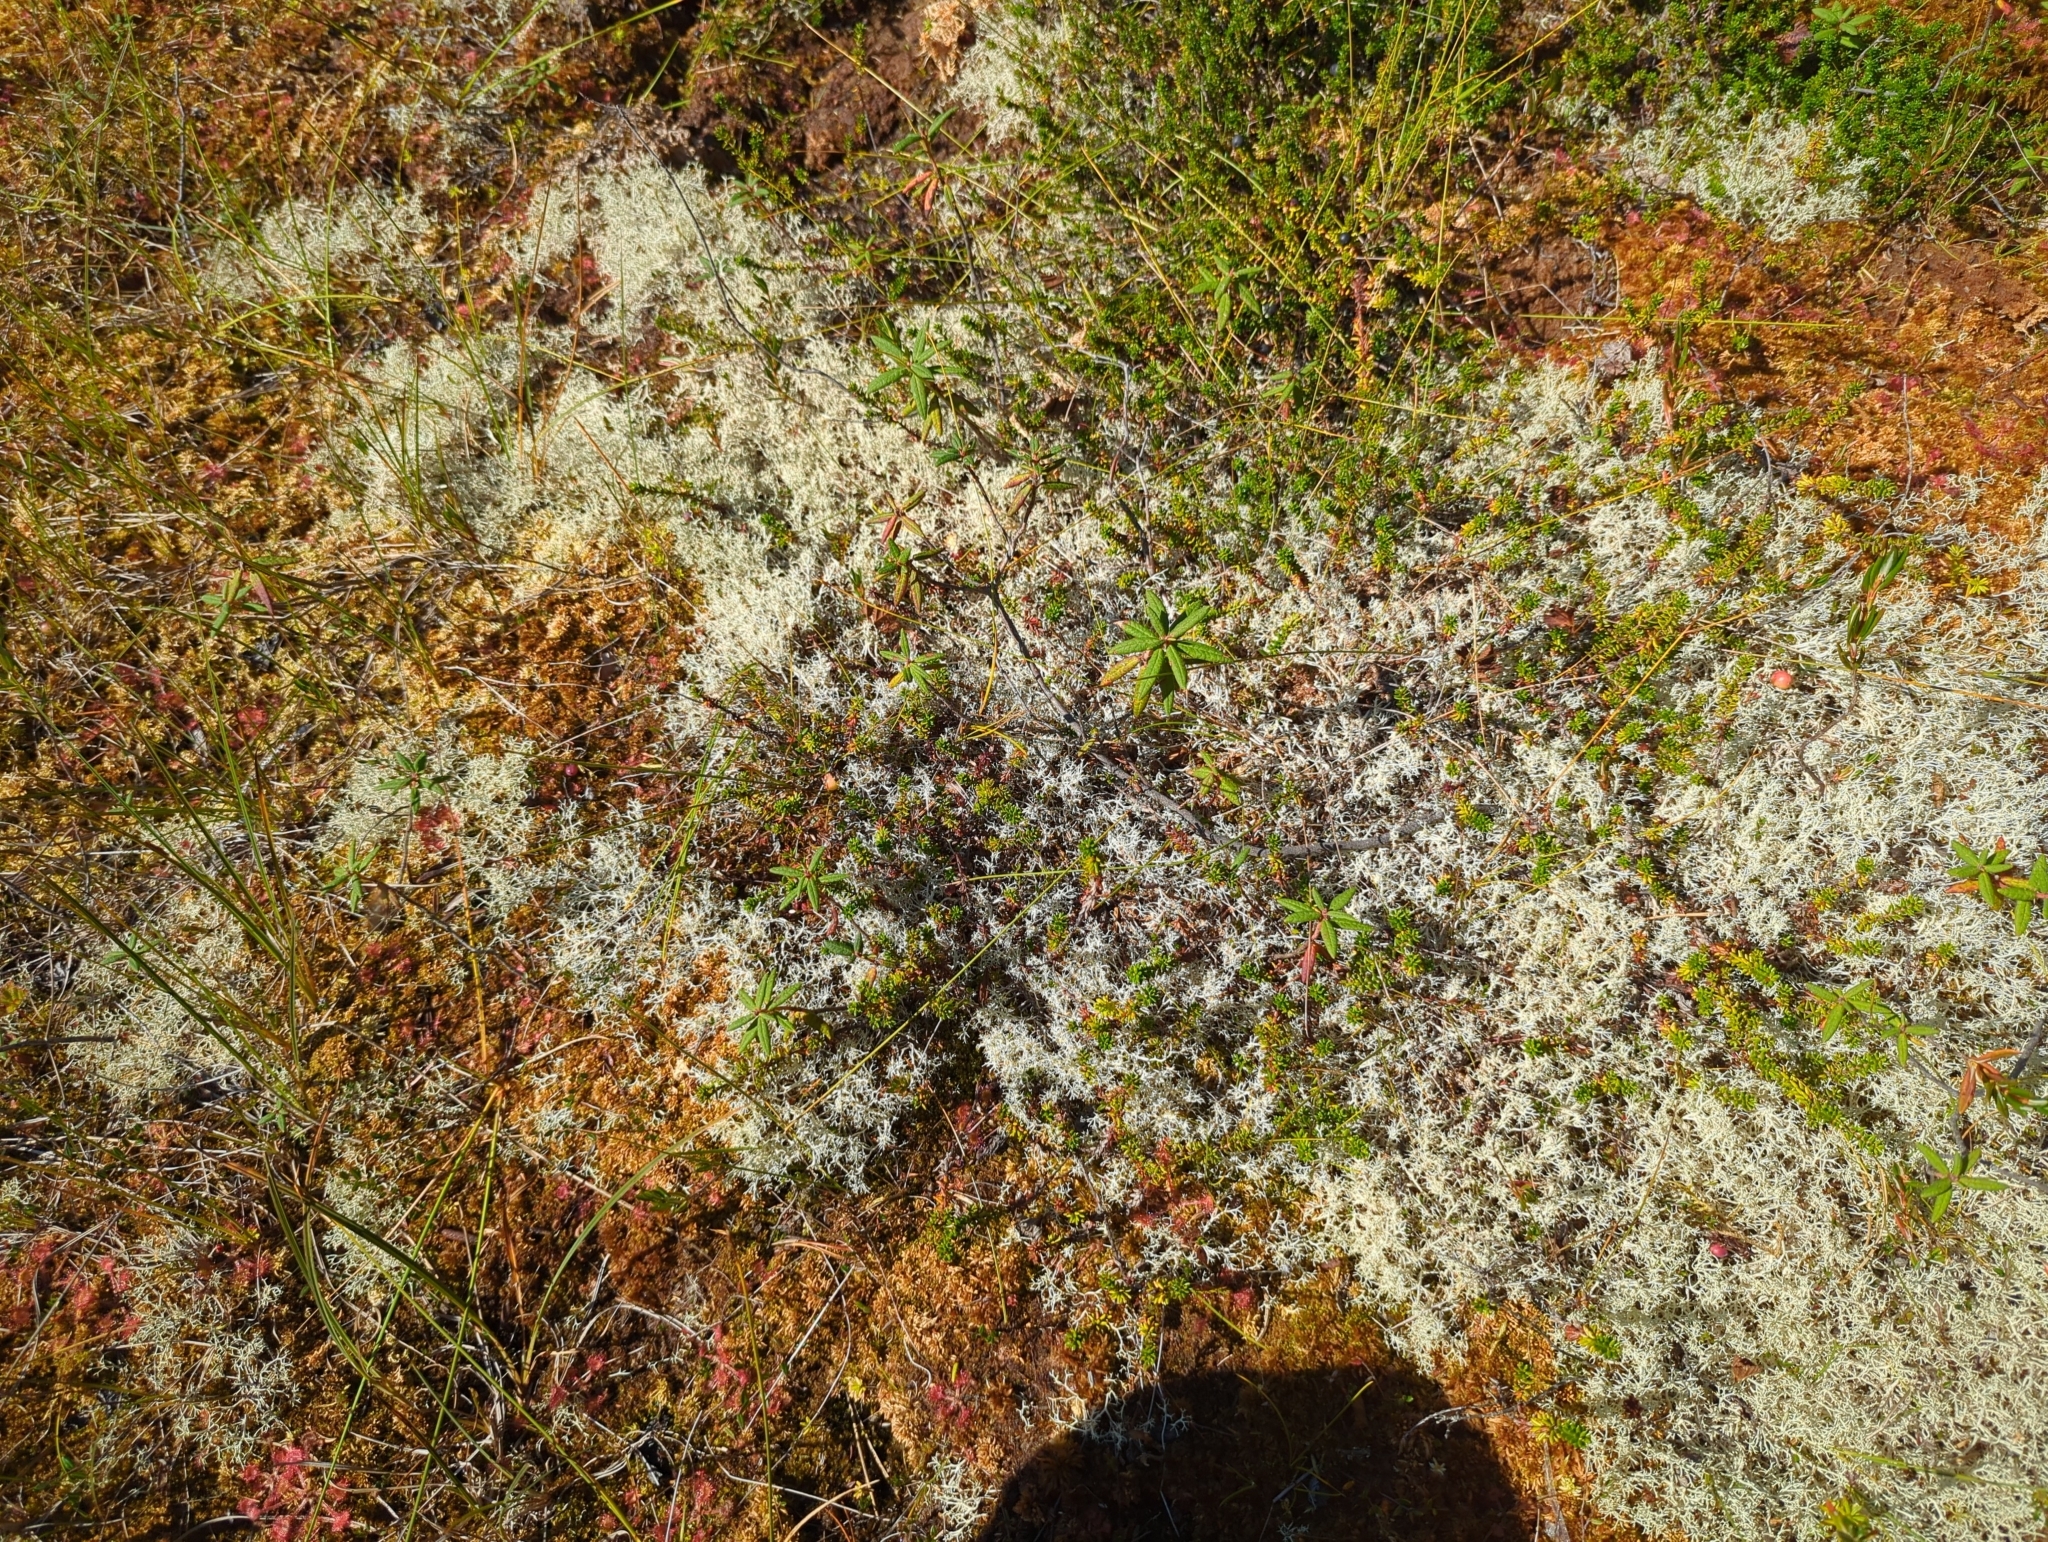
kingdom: Fungi
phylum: Ascomycota
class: Lecanoromycetes
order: Lecanorales
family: Cladoniaceae
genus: Cladonia
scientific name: Cladonia portentosa
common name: Reindeer lichen
